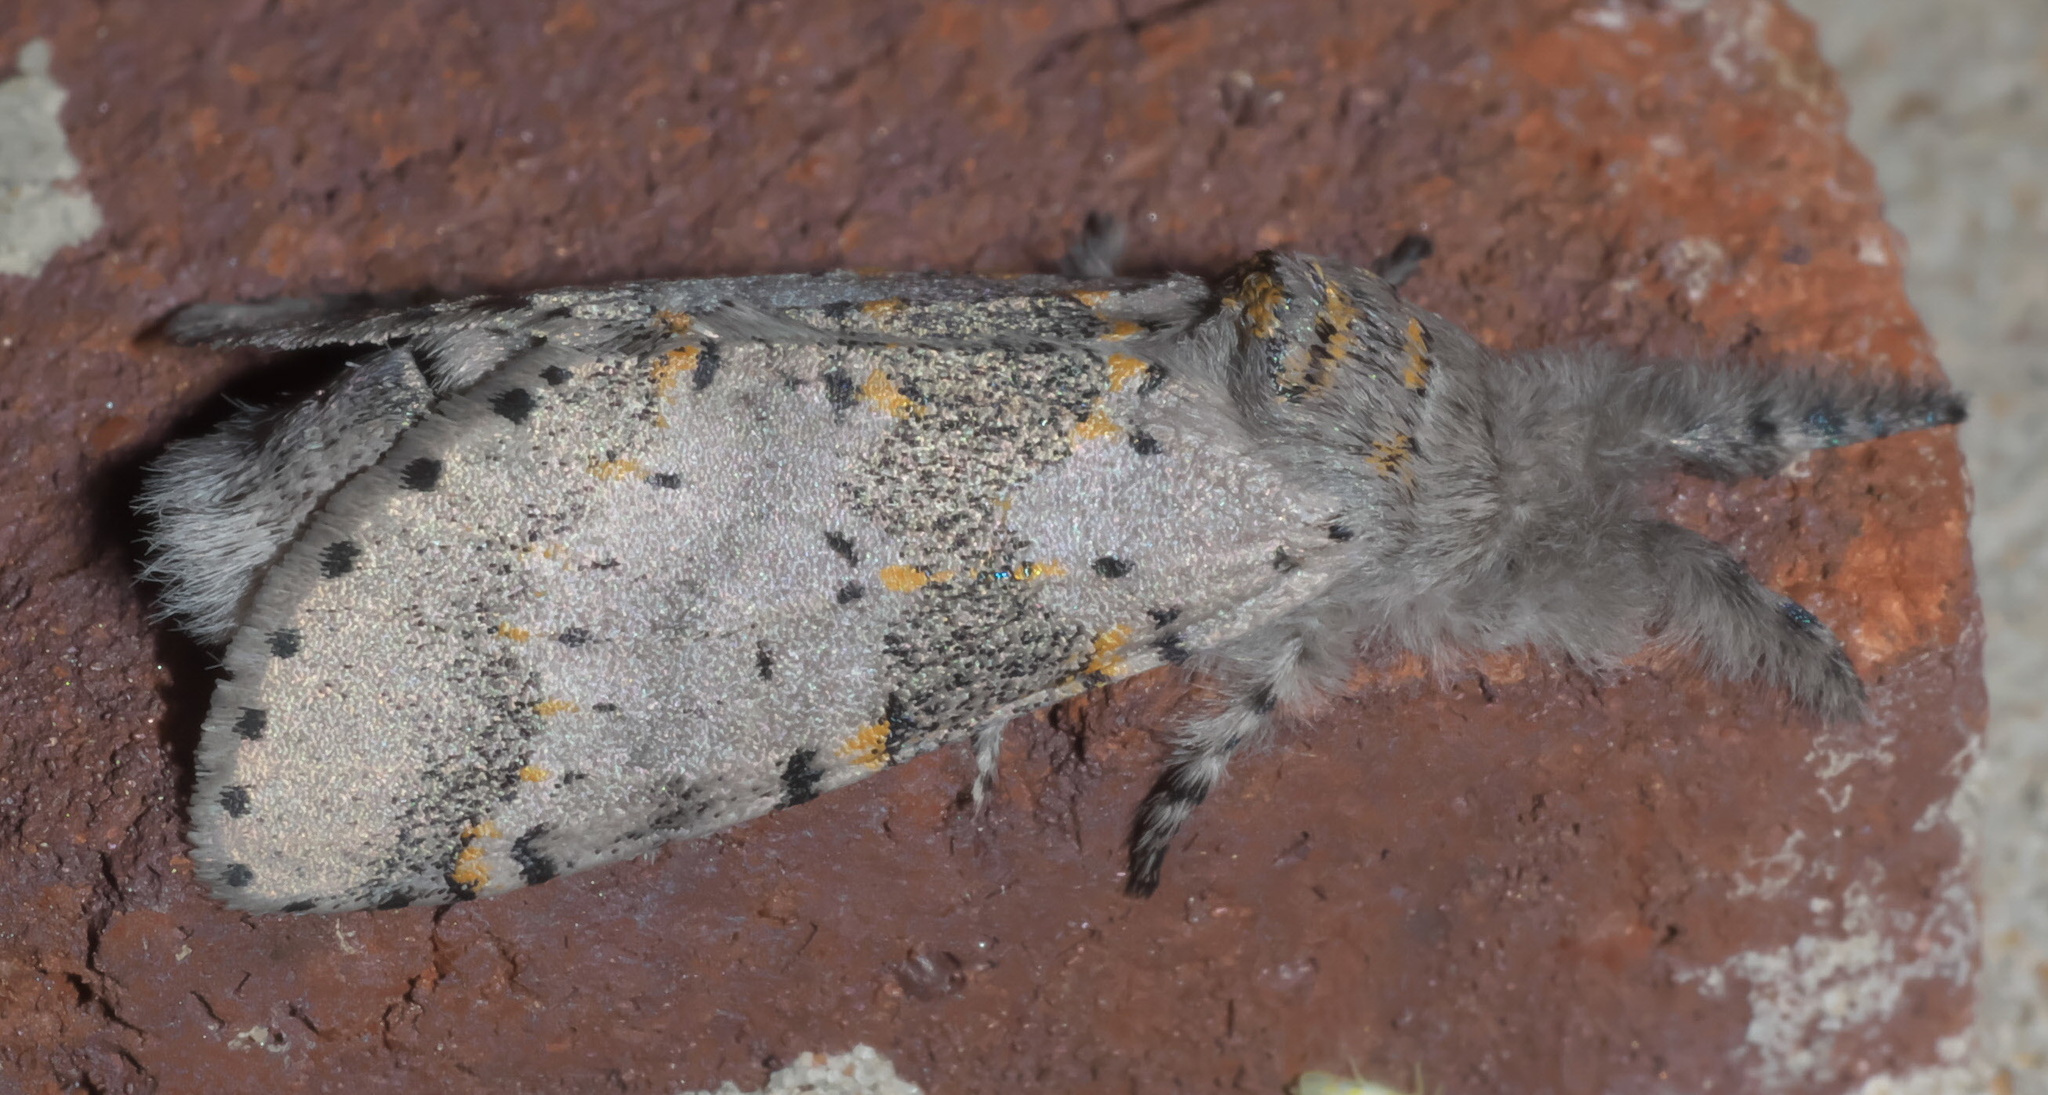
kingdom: Animalia
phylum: Arthropoda
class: Insecta
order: Lepidoptera
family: Notodontidae
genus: Furcula
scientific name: Furcula cinerea
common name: Gray furcula
